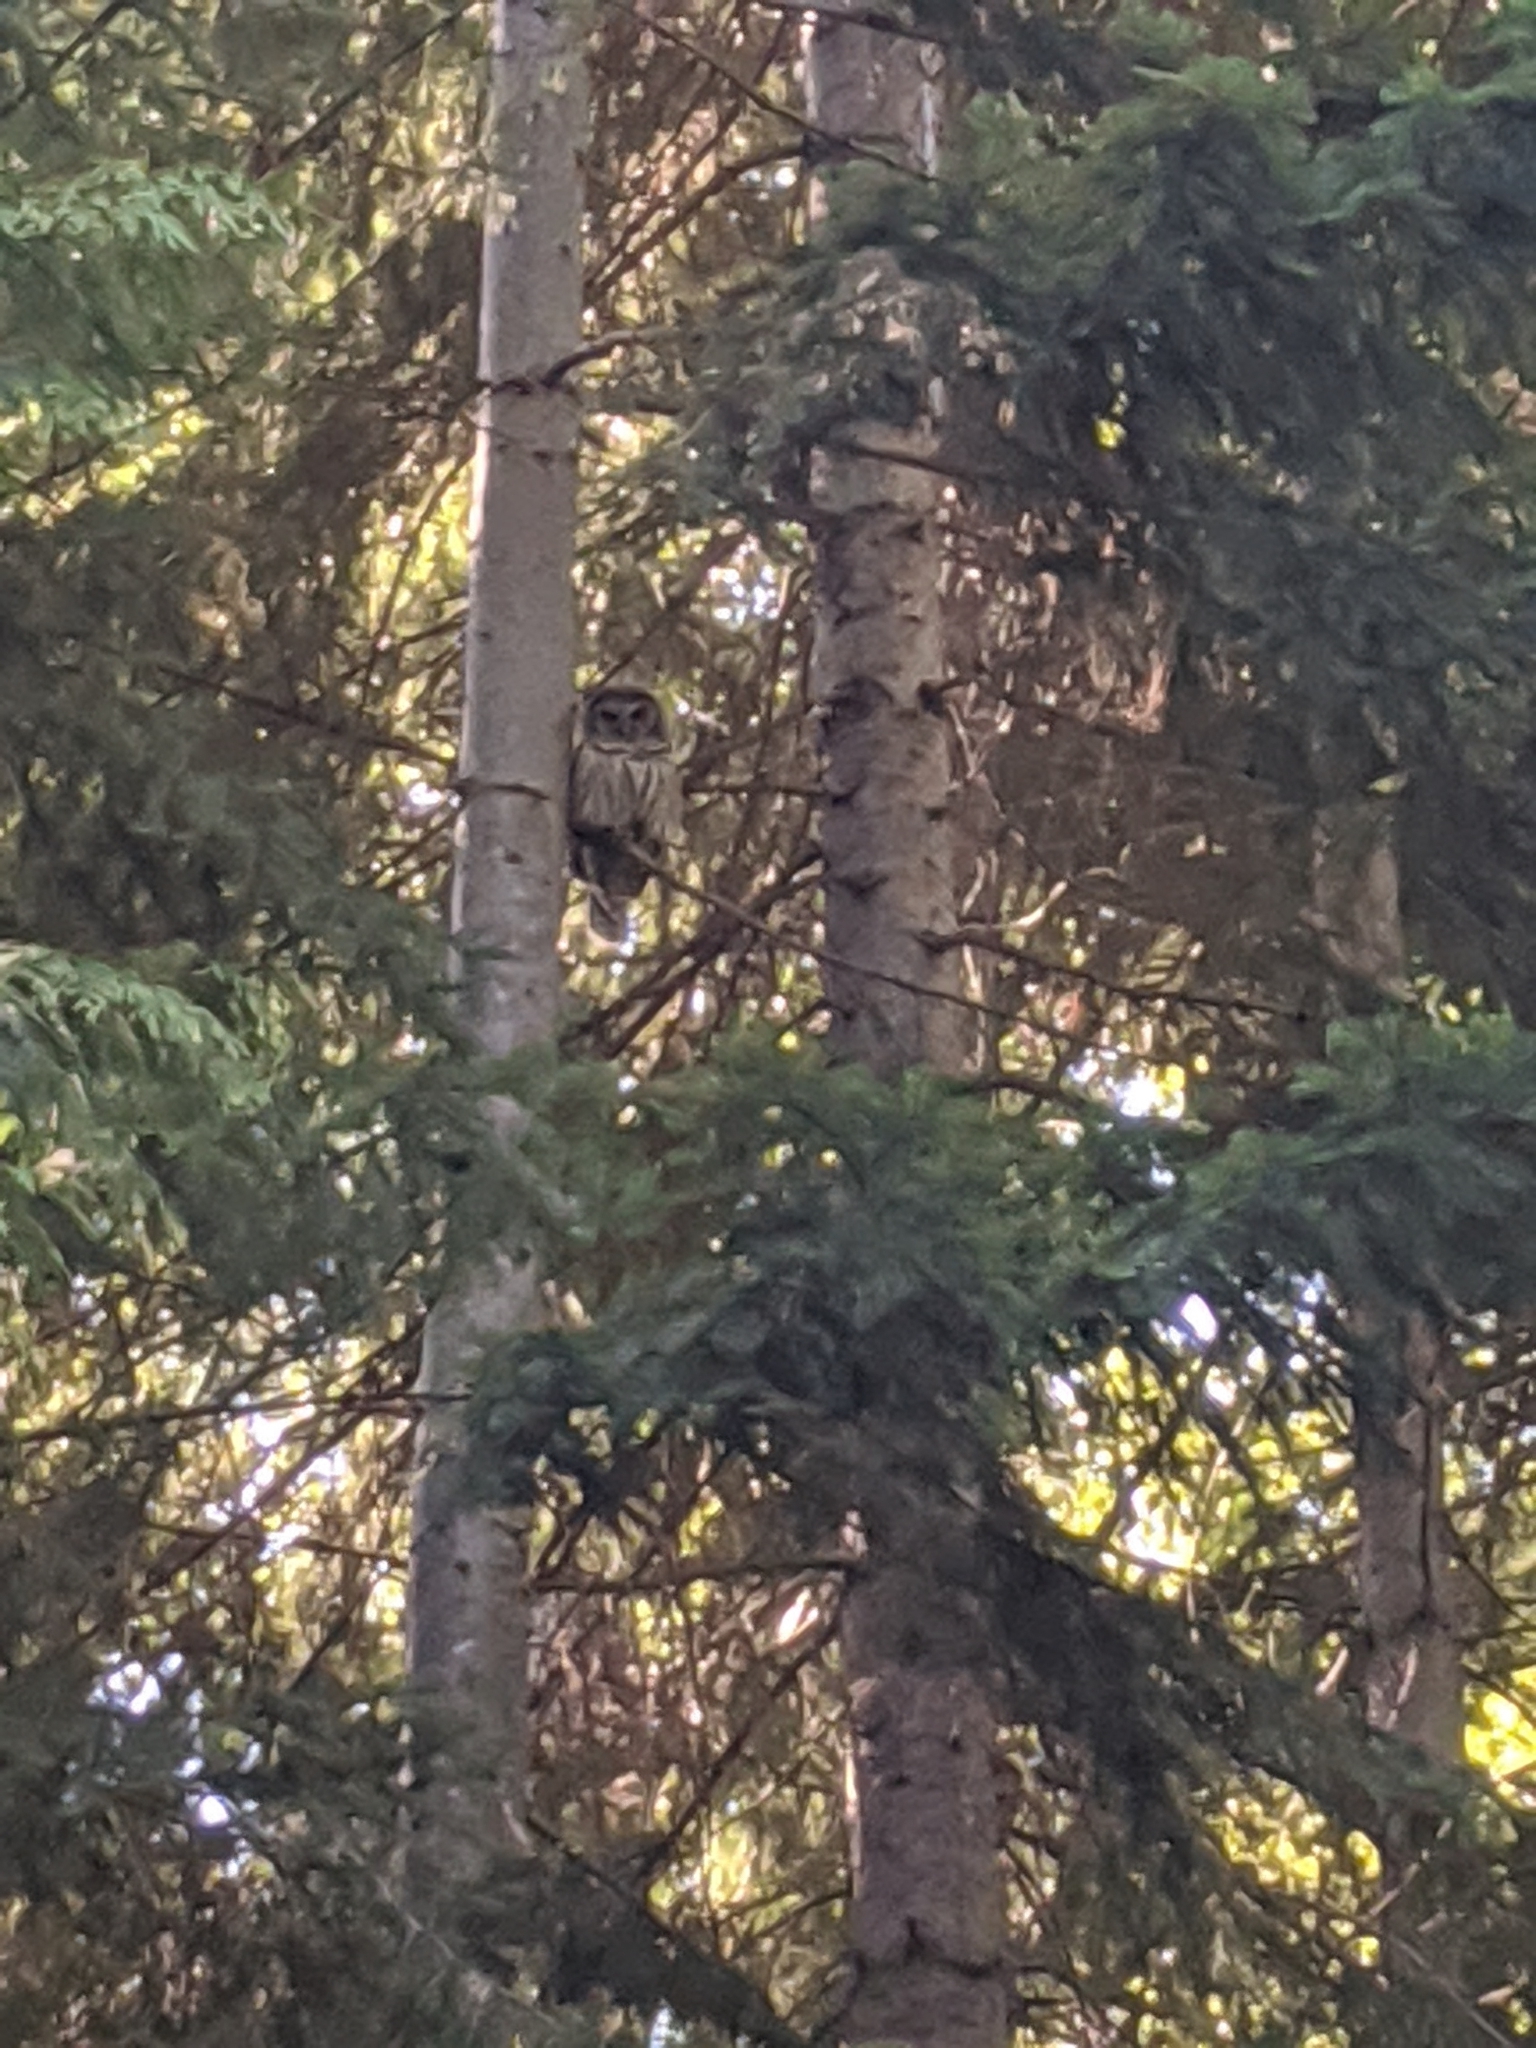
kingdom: Animalia
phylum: Chordata
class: Aves
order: Strigiformes
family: Strigidae
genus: Strix
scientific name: Strix varia
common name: Barred owl
